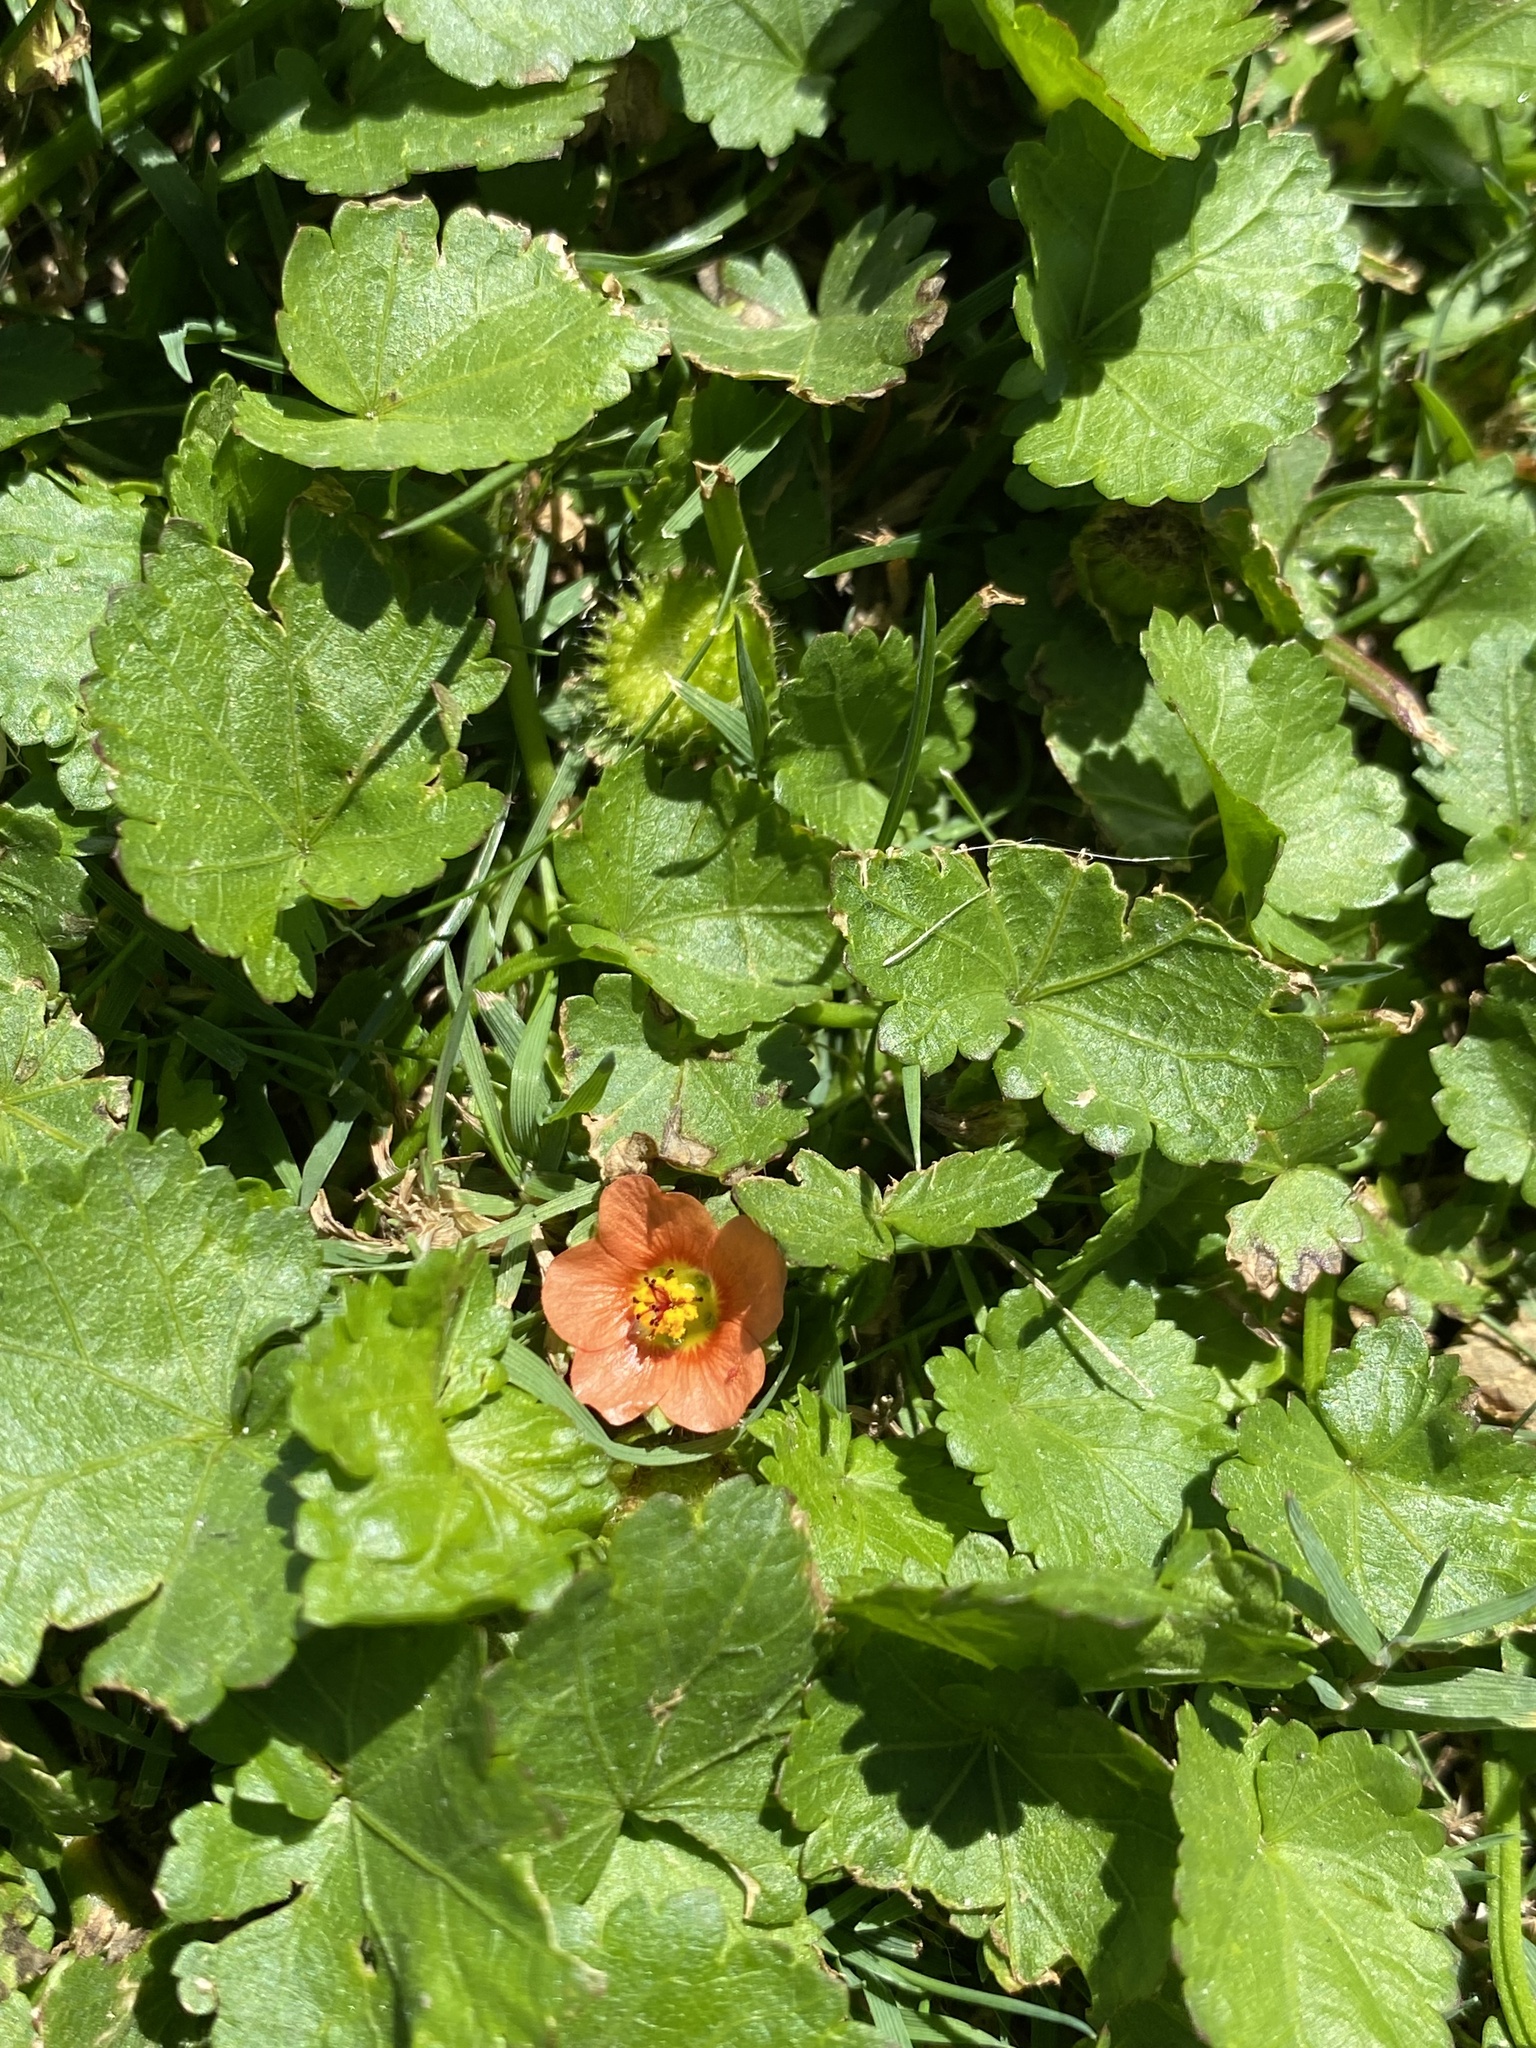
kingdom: Plantae
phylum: Tracheophyta
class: Magnoliopsida
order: Malvales
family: Malvaceae
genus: Modiola
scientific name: Modiola caroliniana
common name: Carolina bristlemallow
